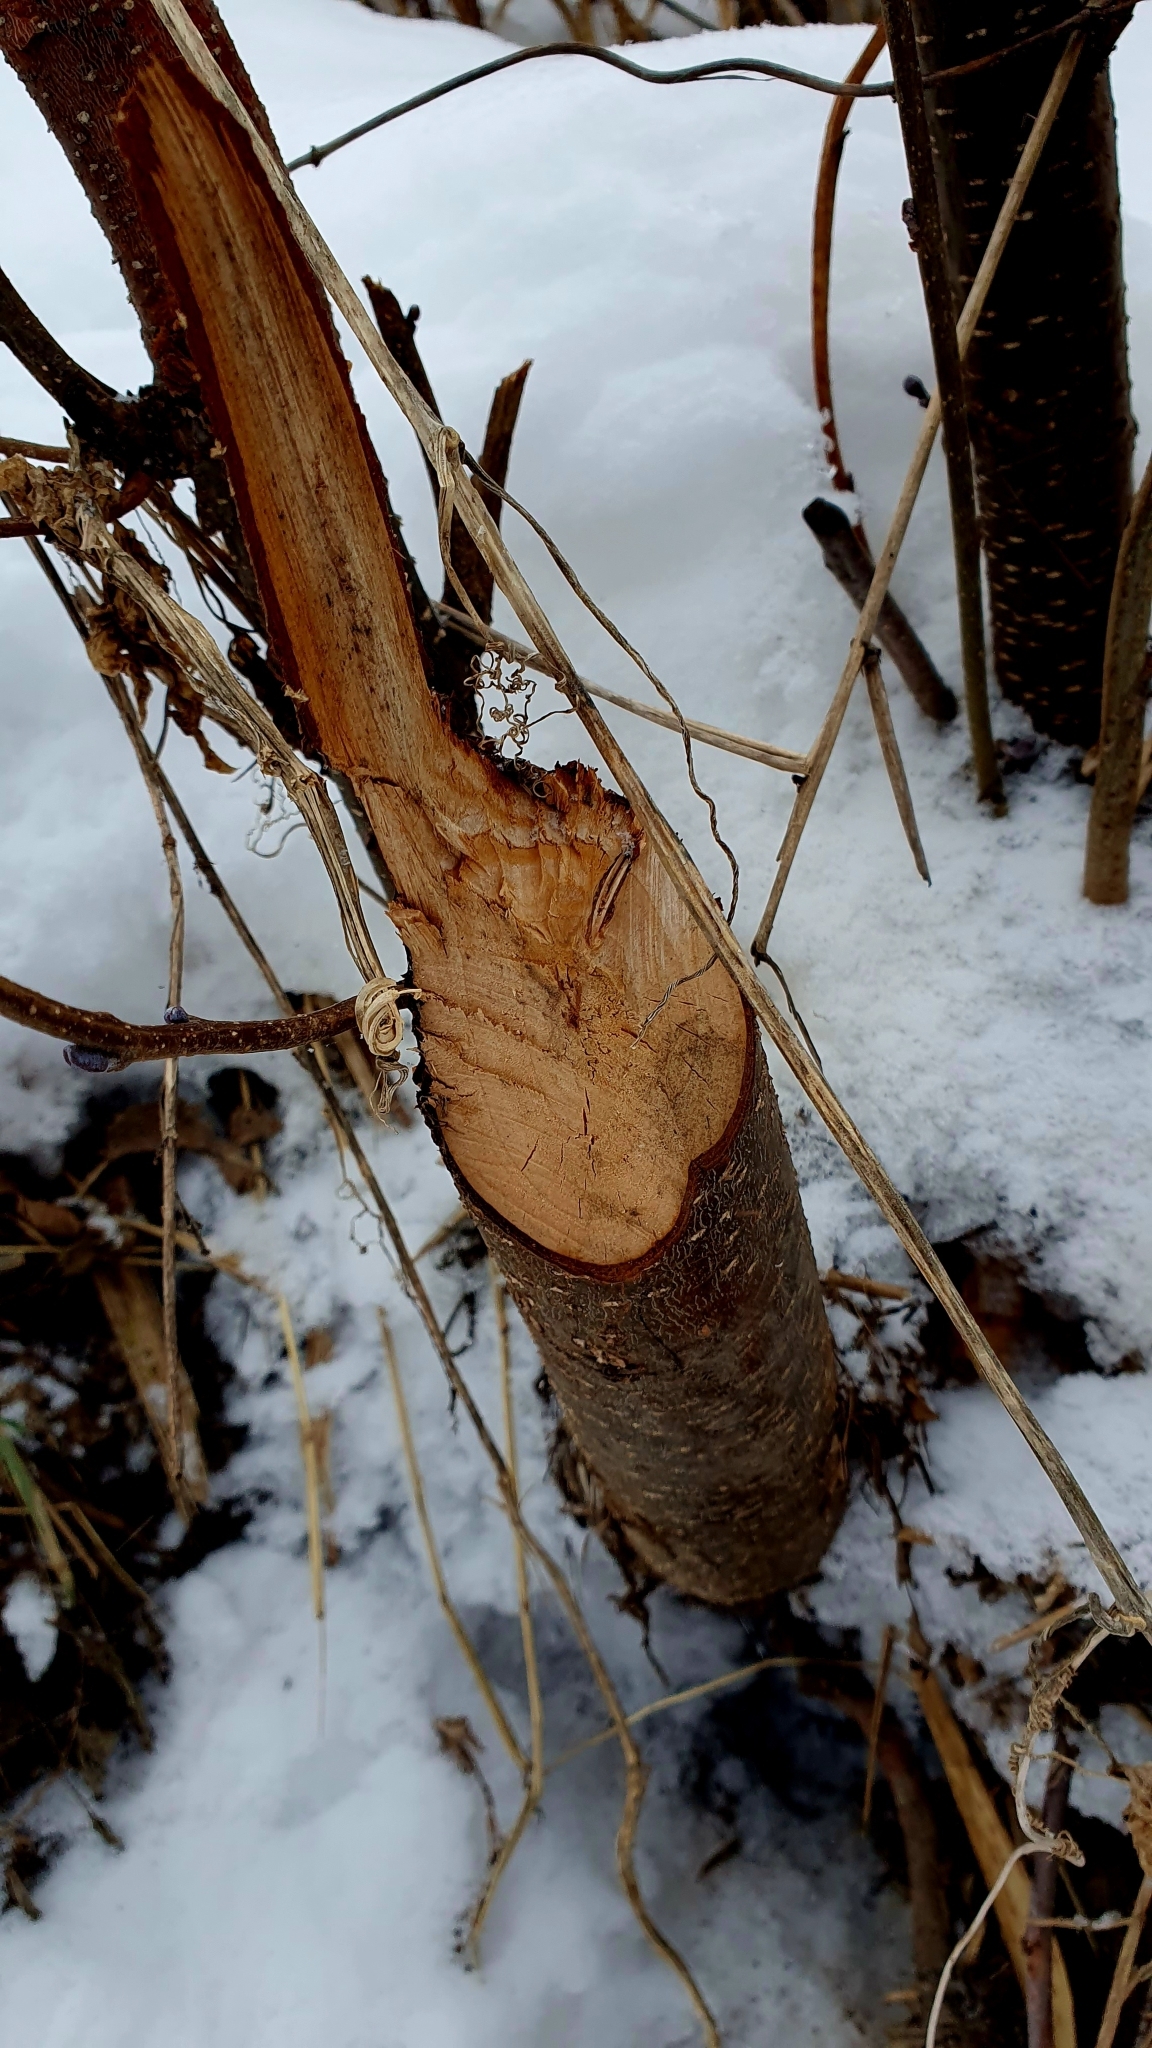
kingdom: Animalia
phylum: Chordata
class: Mammalia
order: Rodentia
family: Castoridae
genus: Castor
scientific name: Castor fiber
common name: Eurasian beaver
